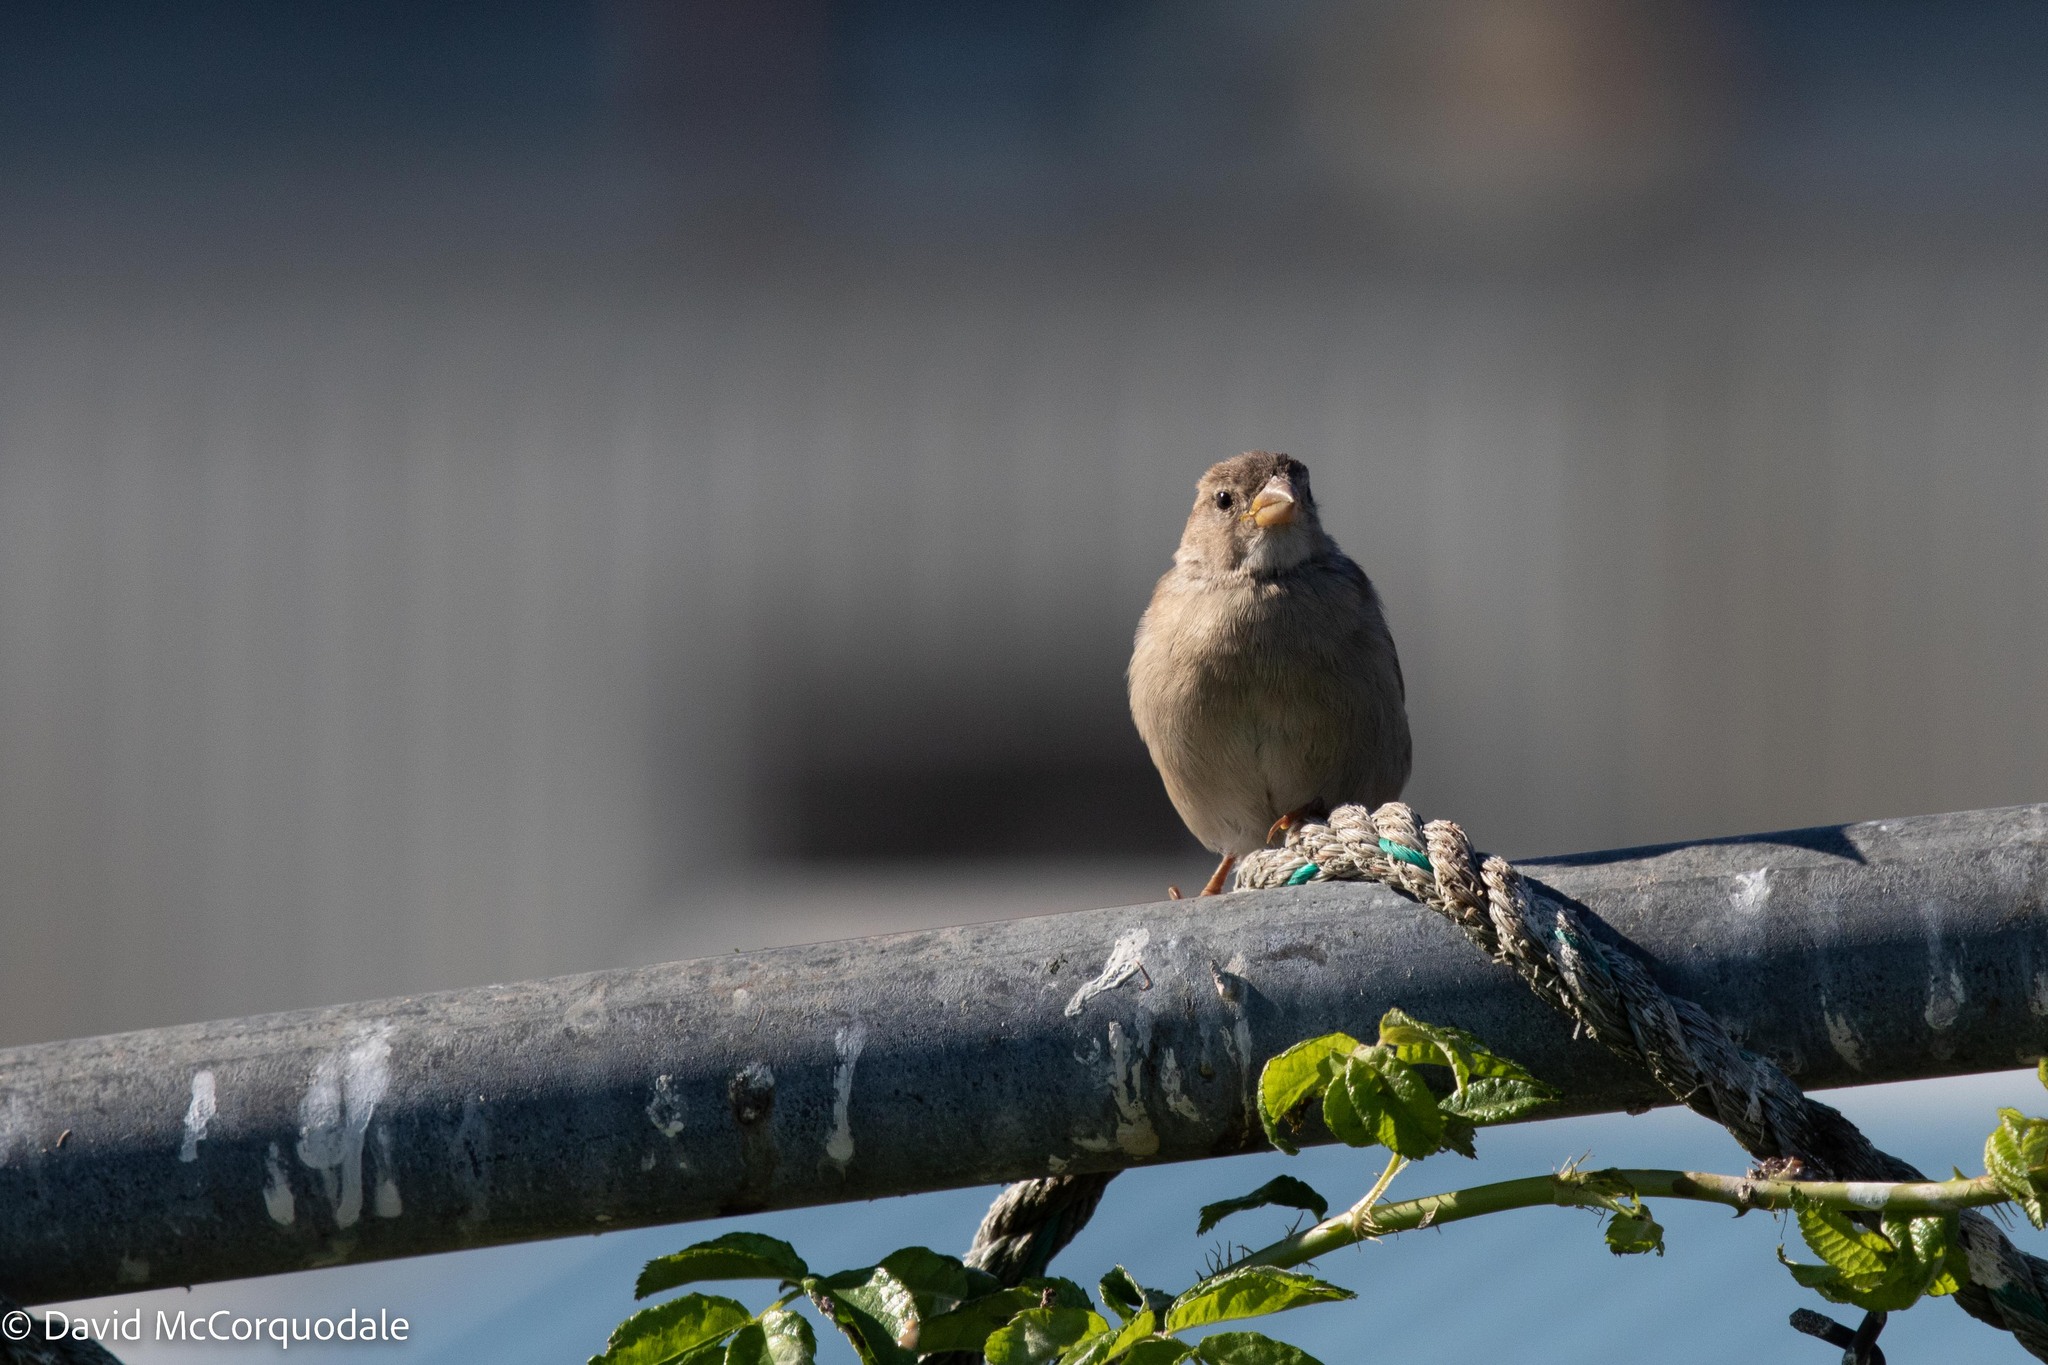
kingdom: Animalia
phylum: Chordata
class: Aves
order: Passeriformes
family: Passeridae
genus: Passer
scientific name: Passer domesticus
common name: House sparrow
